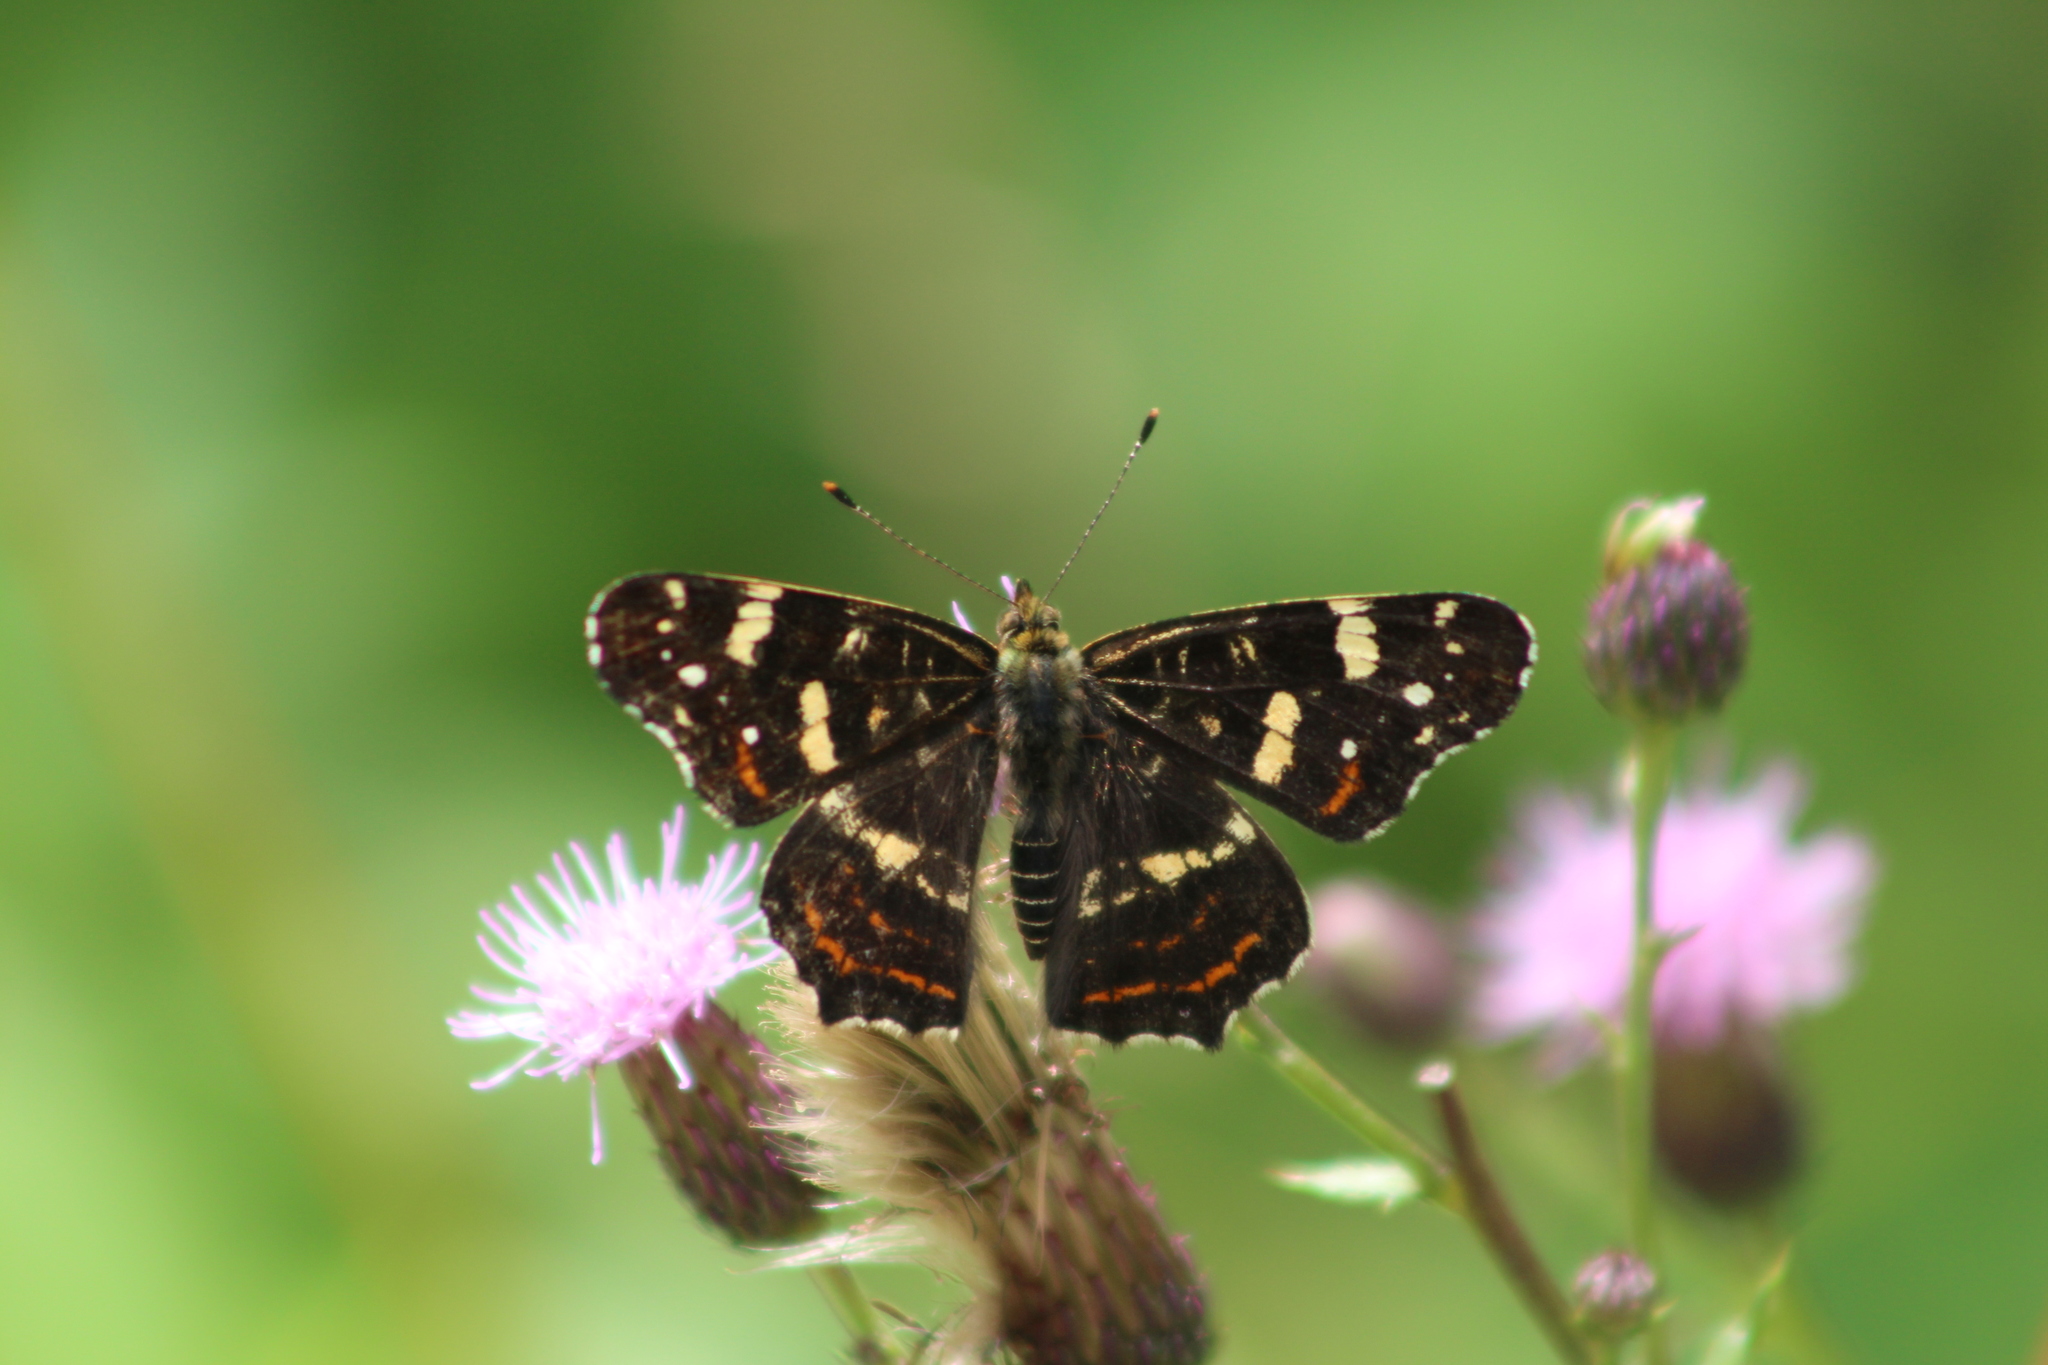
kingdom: Animalia
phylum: Arthropoda
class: Insecta
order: Lepidoptera
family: Nymphalidae
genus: Araschnia
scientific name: Araschnia levana
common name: Map butterfly
